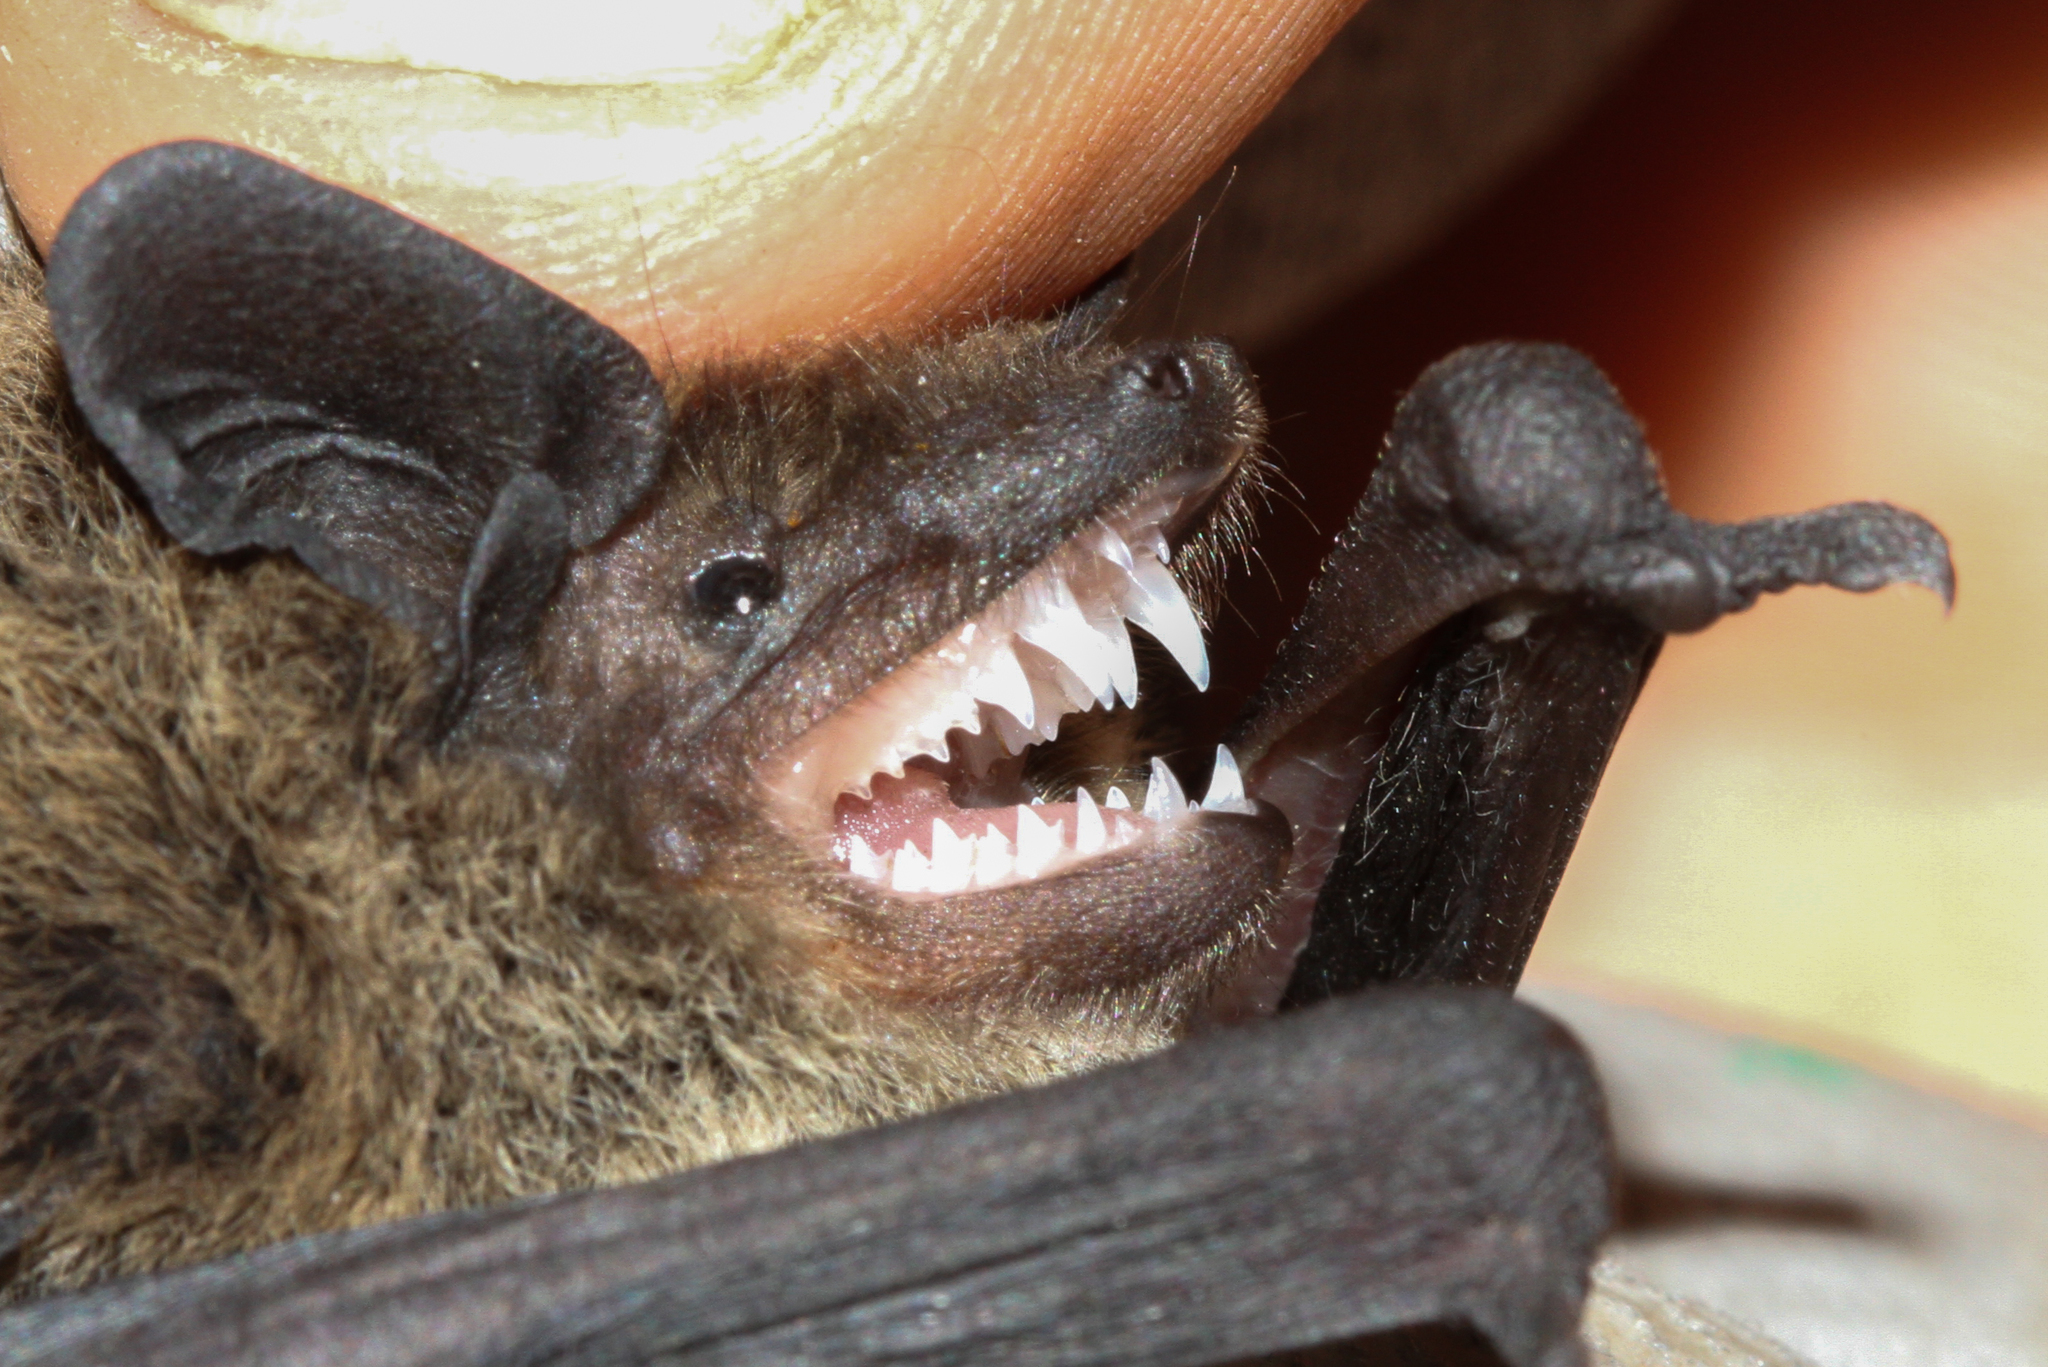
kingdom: Animalia
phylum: Chordata
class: Mammalia
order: Chiroptera
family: Vespertilionidae
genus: Pipistrellus
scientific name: Pipistrellus kuhlii
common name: Kuhl's pipistrelle
